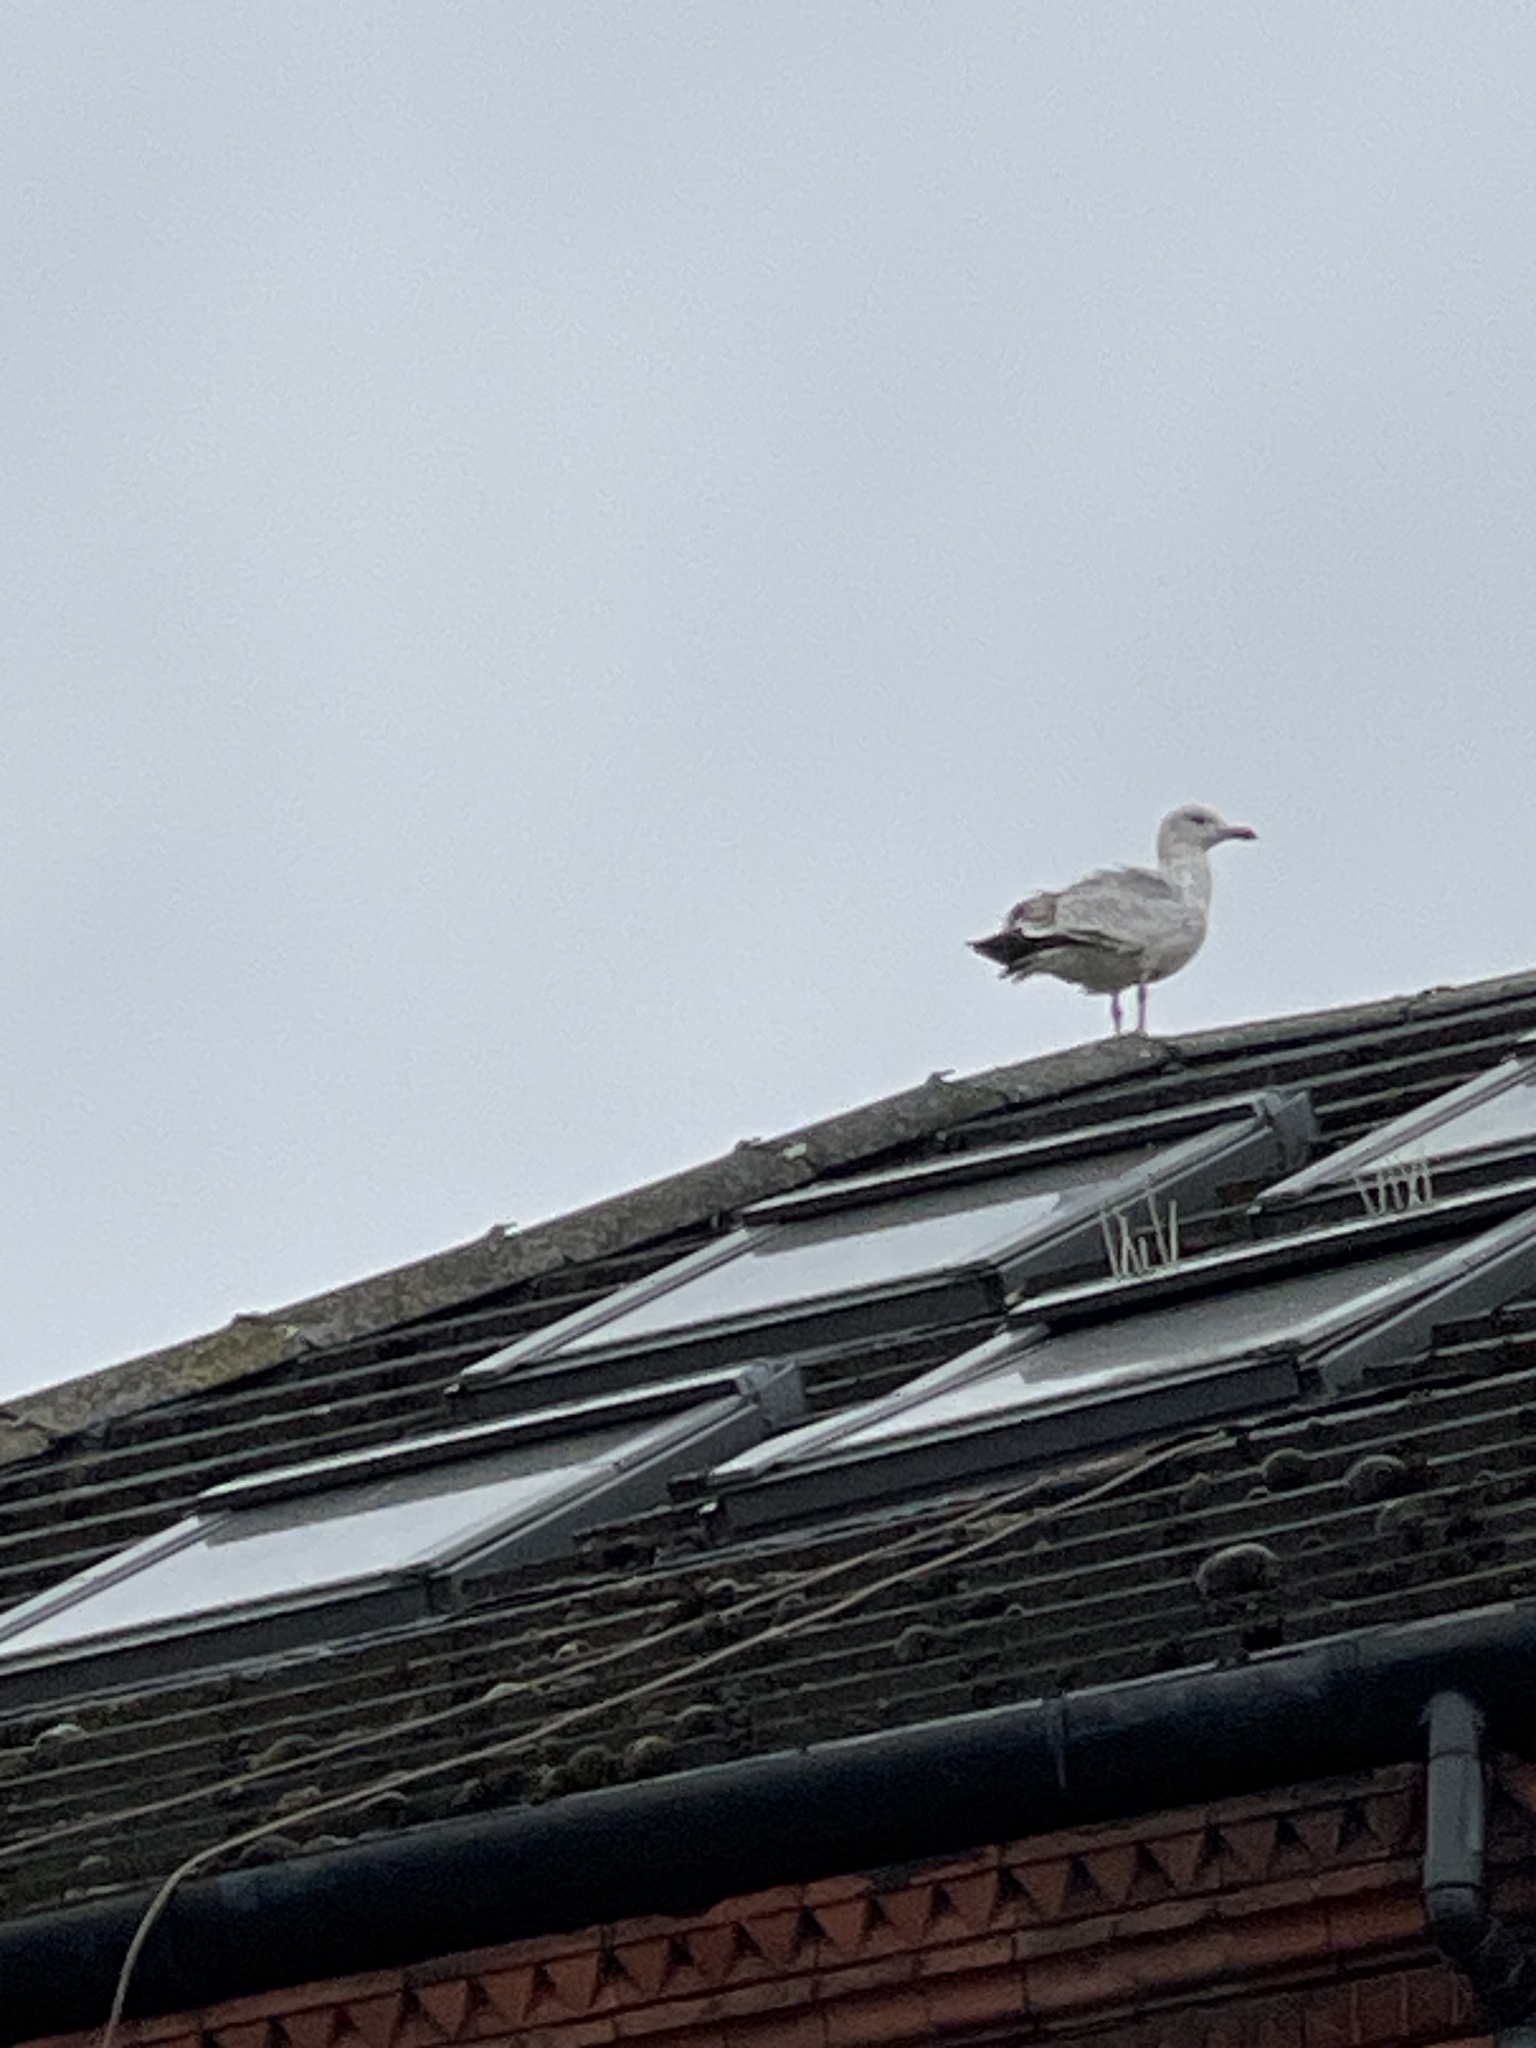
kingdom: Animalia
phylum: Chordata
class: Aves
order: Charadriiformes
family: Laridae
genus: Larus
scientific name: Larus argentatus
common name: Herring gull
